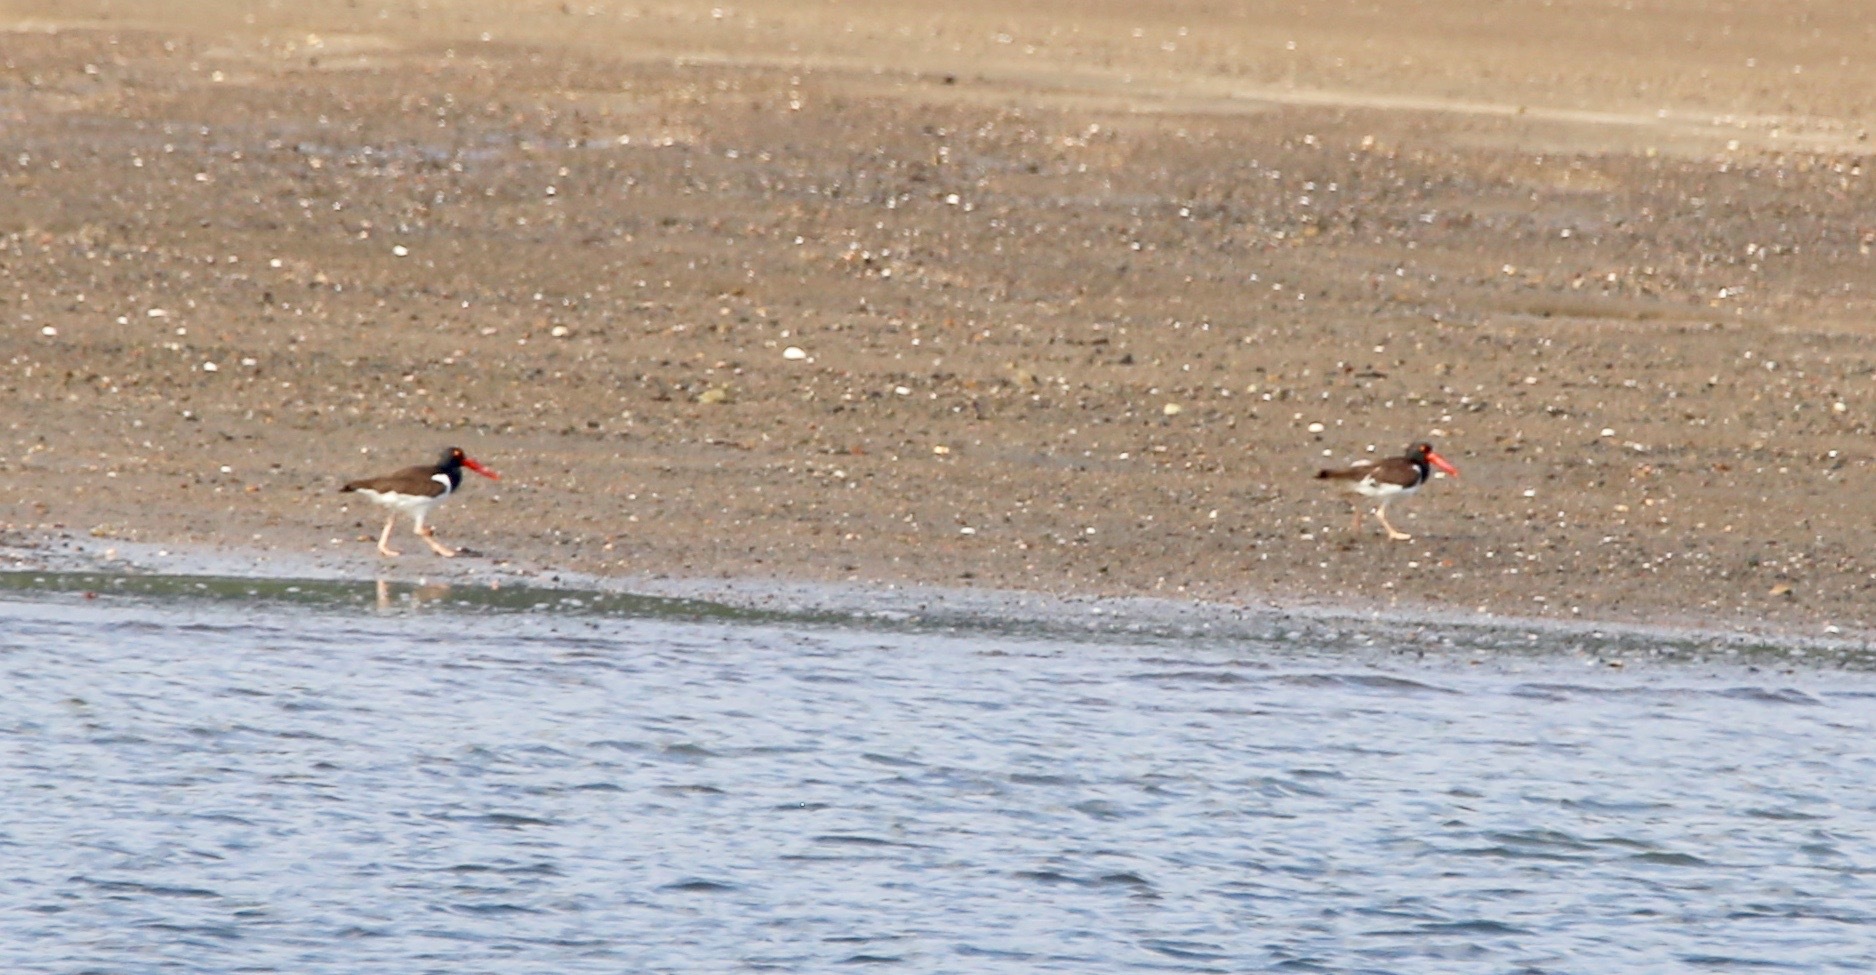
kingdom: Animalia
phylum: Chordata
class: Aves
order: Charadriiformes
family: Haematopodidae
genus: Haematopus
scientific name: Haematopus palliatus
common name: American oystercatcher
